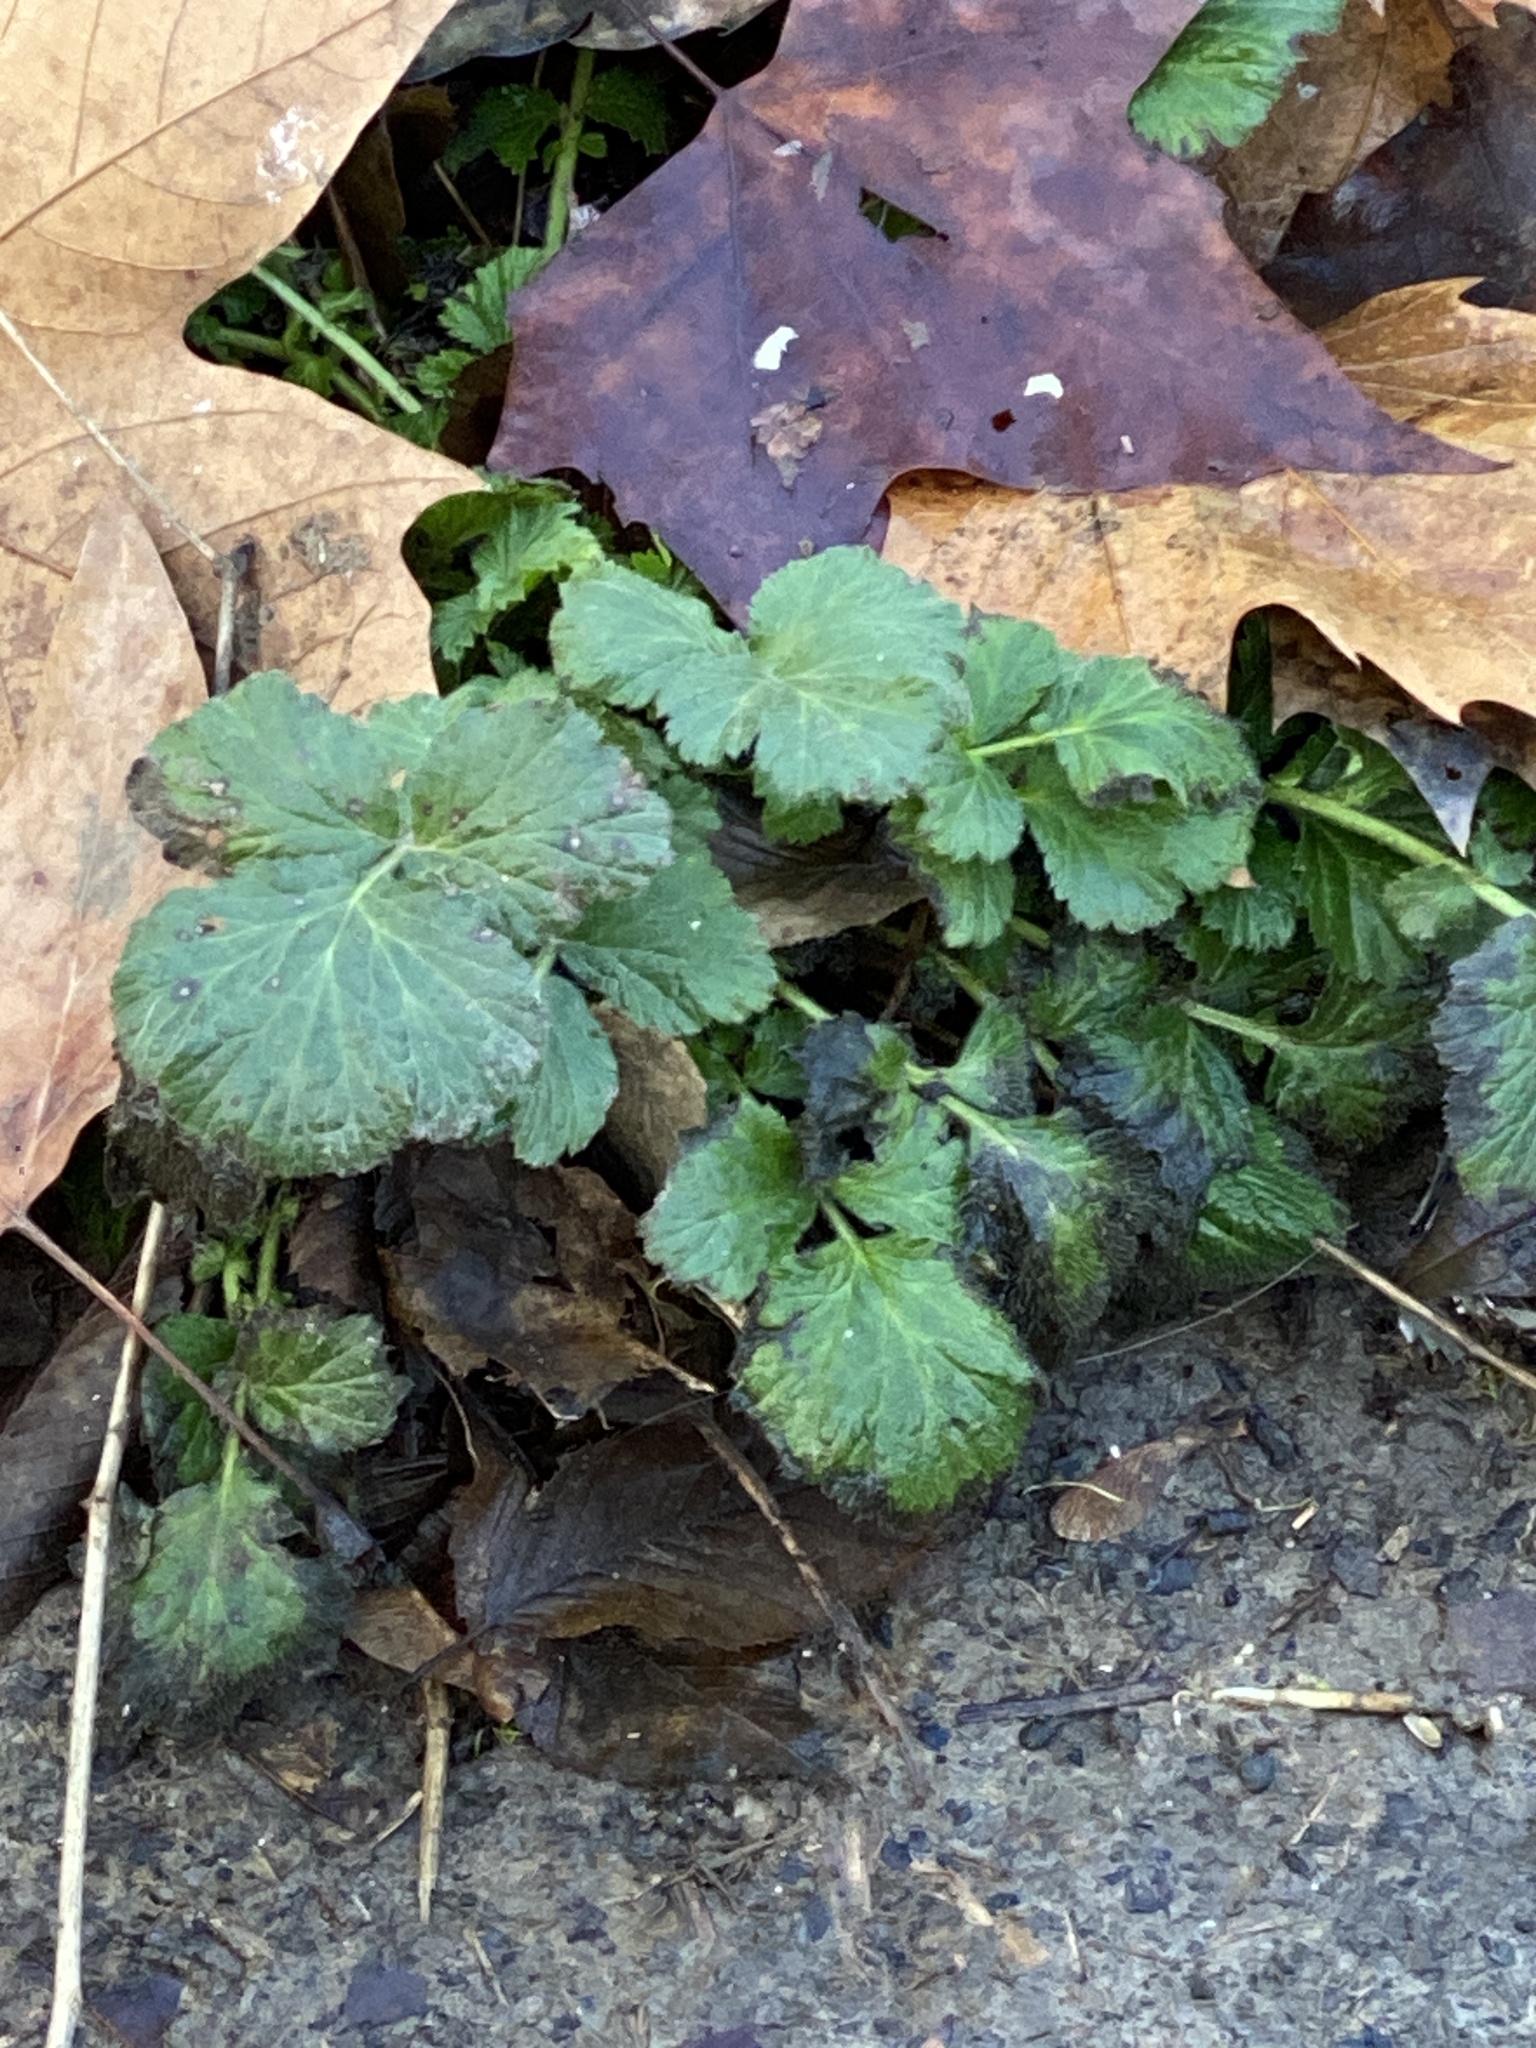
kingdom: Plantae
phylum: Tracheophyta
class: Magnoliopsida
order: Rosales
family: Rosaceae
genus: Geum
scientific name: Geum urbanum
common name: Wood avens
